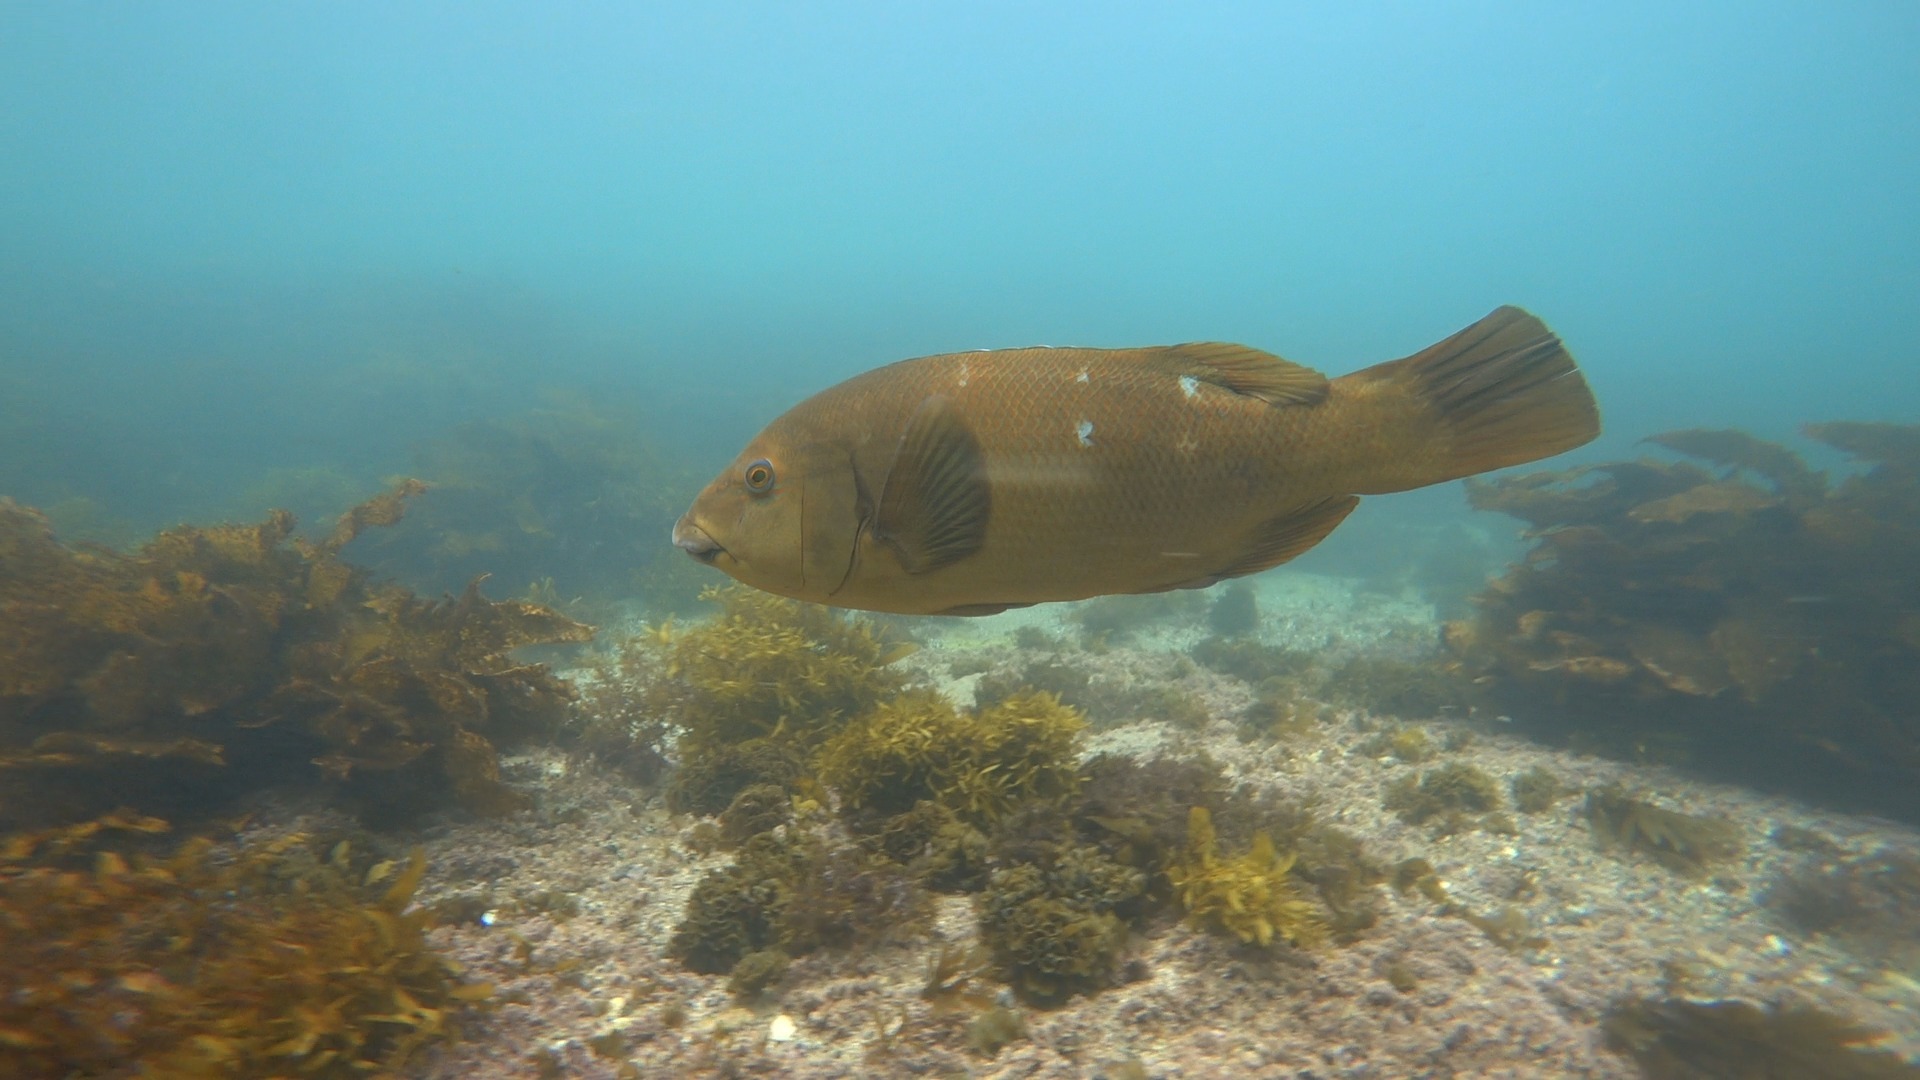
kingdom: Animalia
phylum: Chordata
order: Perciformes
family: Labridae
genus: Achoerodus
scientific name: Achoerodus viridis
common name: Brown groper
